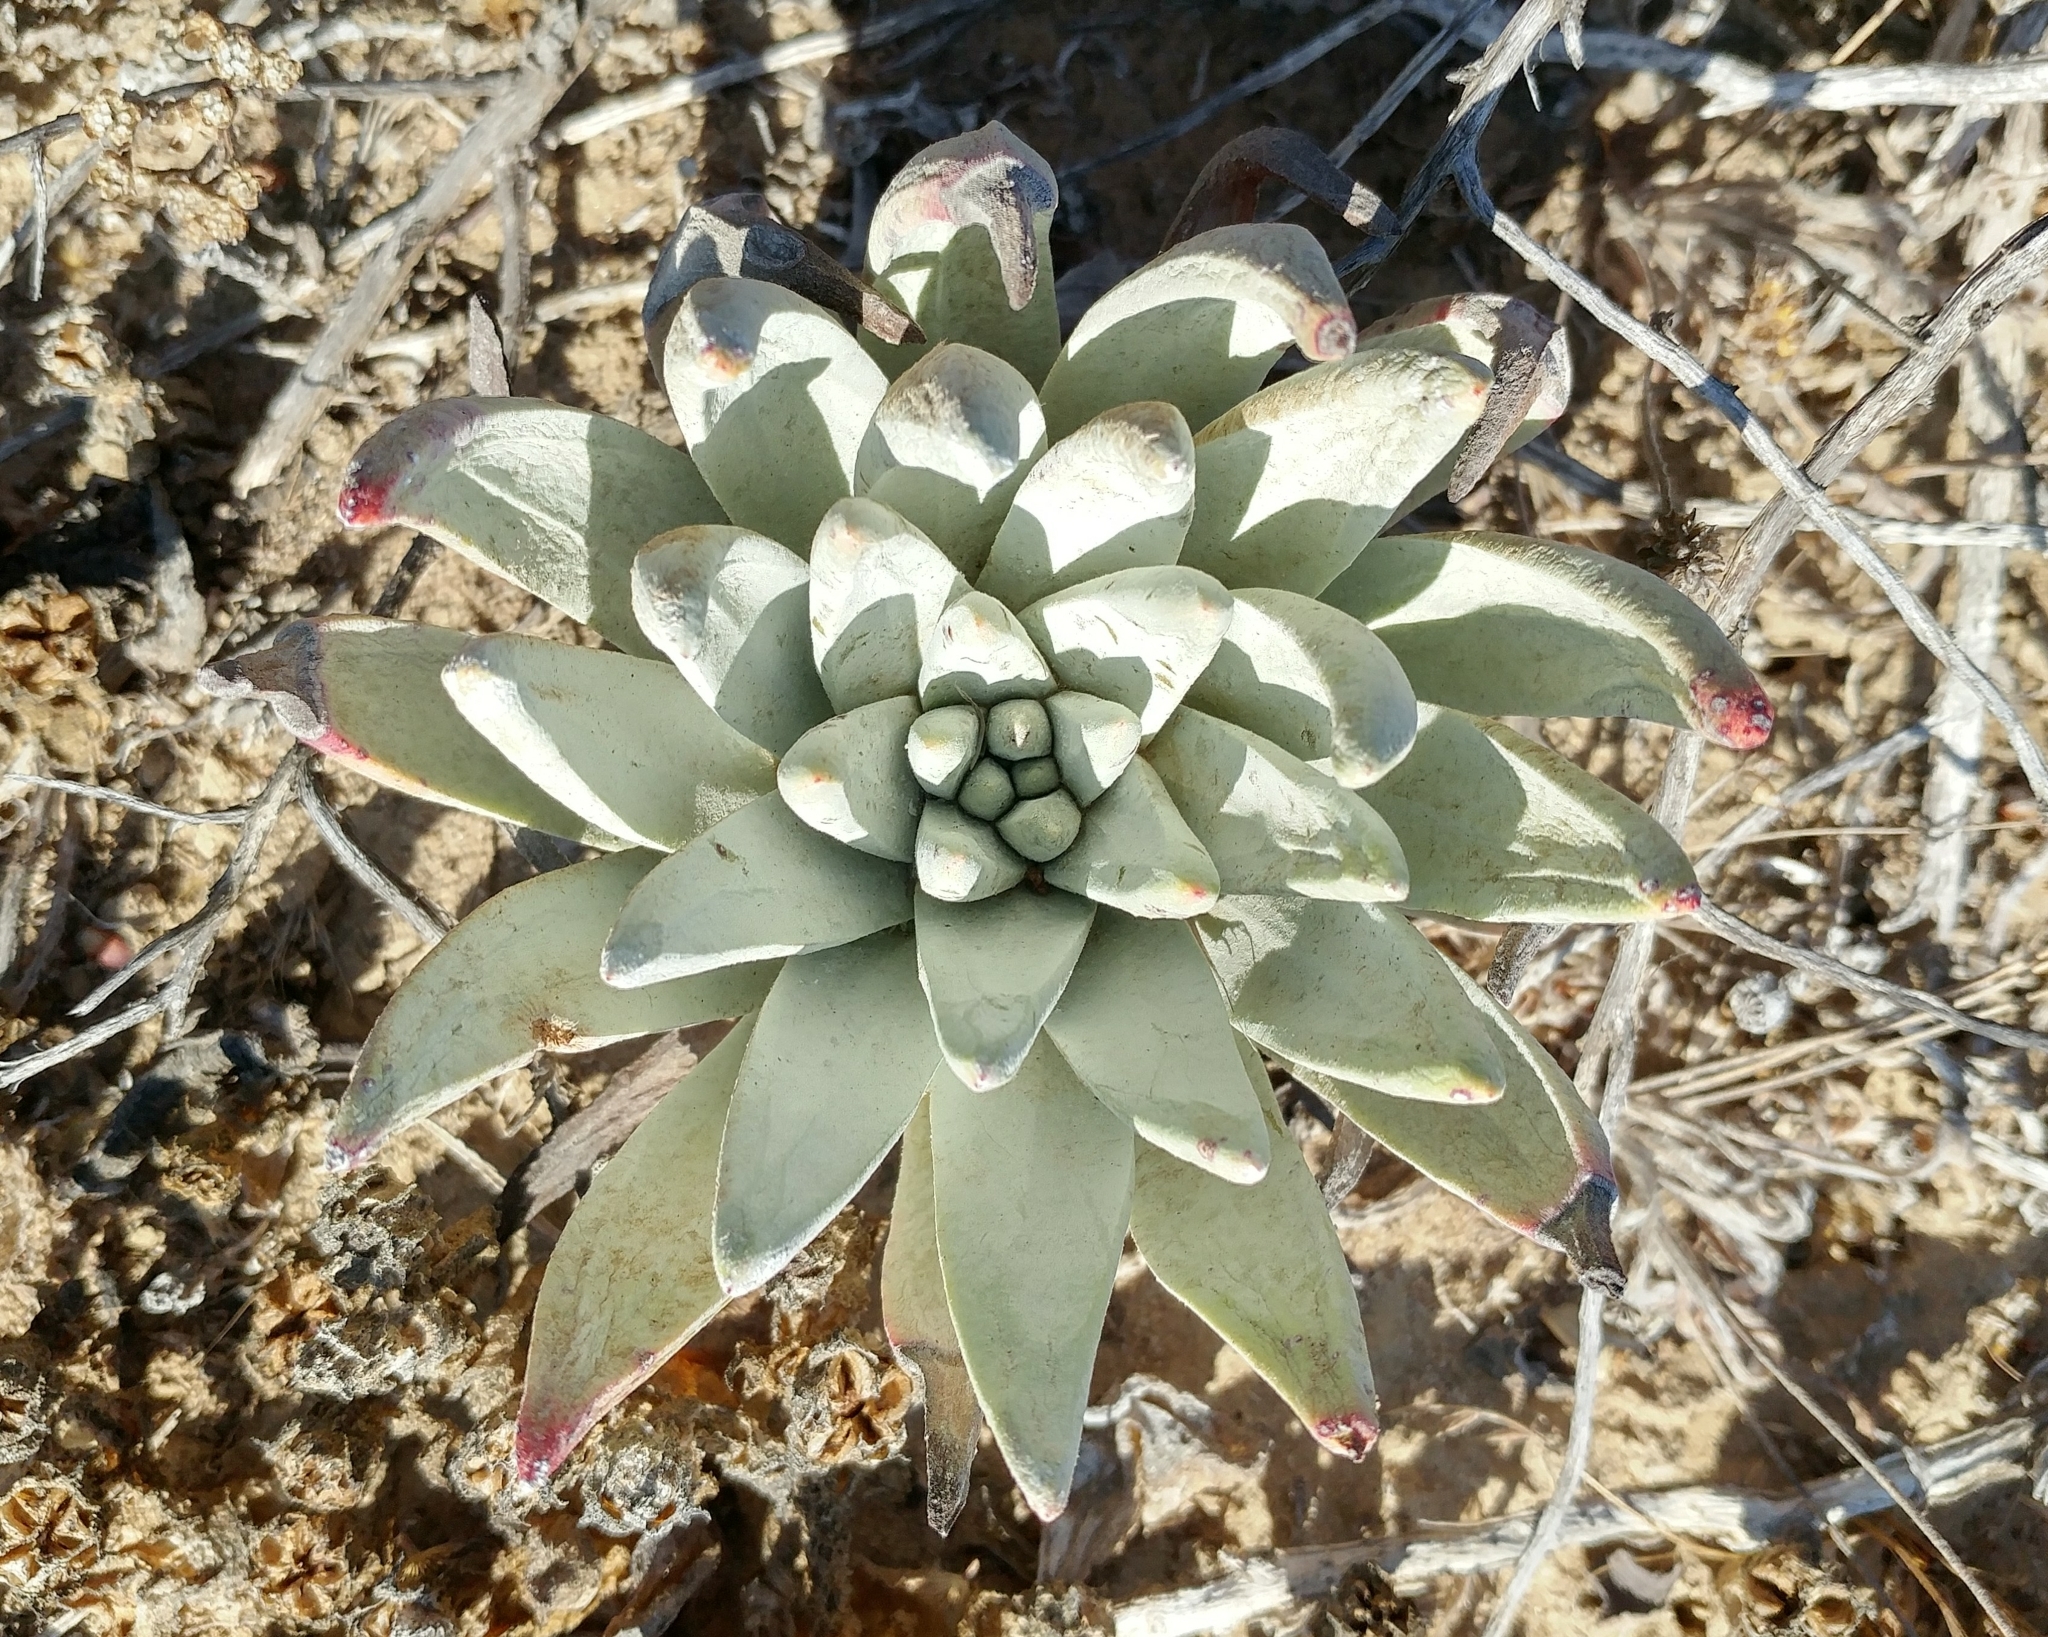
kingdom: Plantae
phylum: Tracheophyta
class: Magnoliopsida
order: Saxifragales
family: Crassulaceae
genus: Dudleya
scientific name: Dudleya virens
